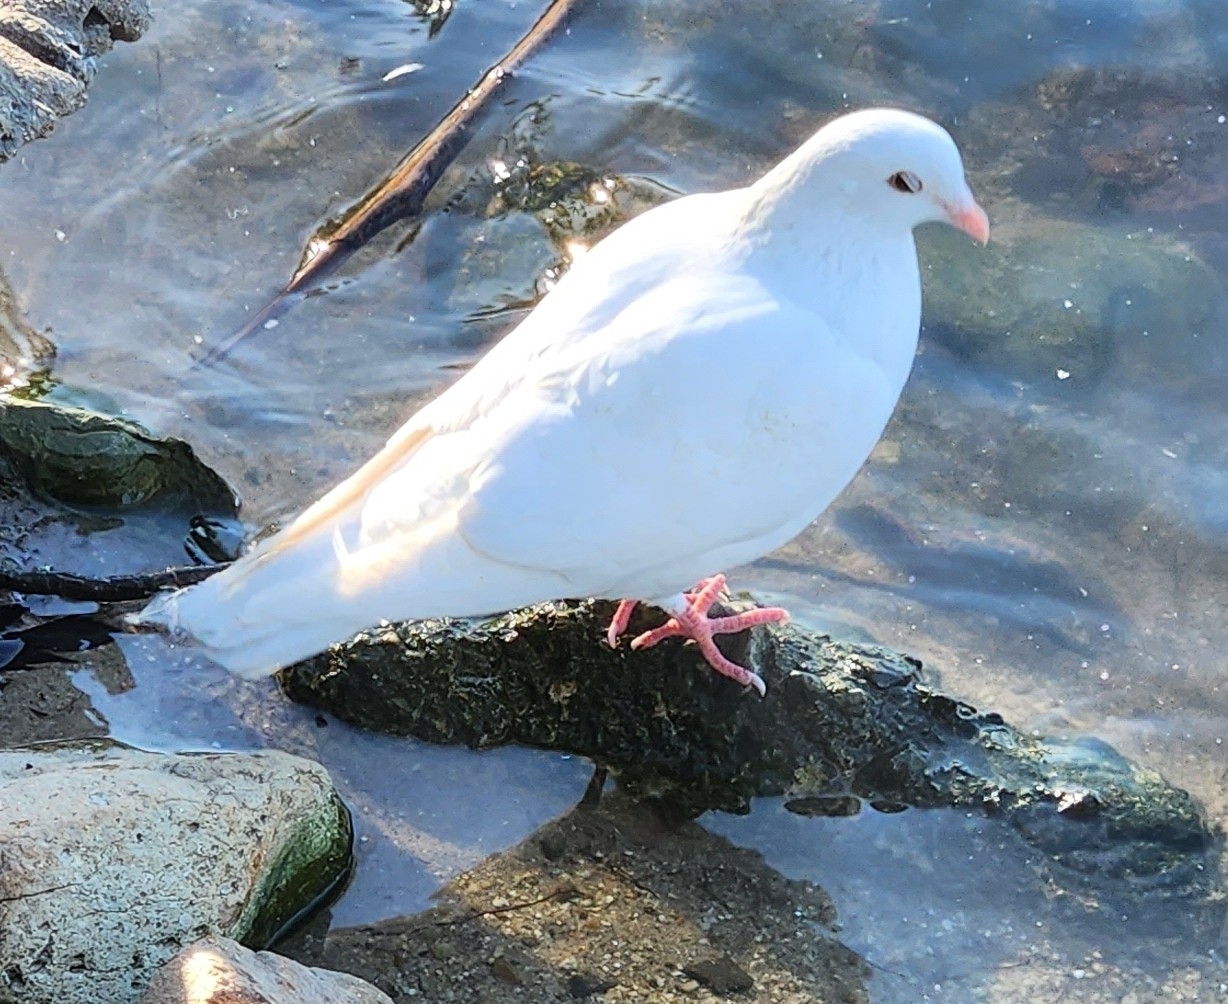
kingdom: Animalia
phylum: Chordata
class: Aves
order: Columbiformes
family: Columbidae
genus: Columba
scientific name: Columba livia
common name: Rock pigeon
